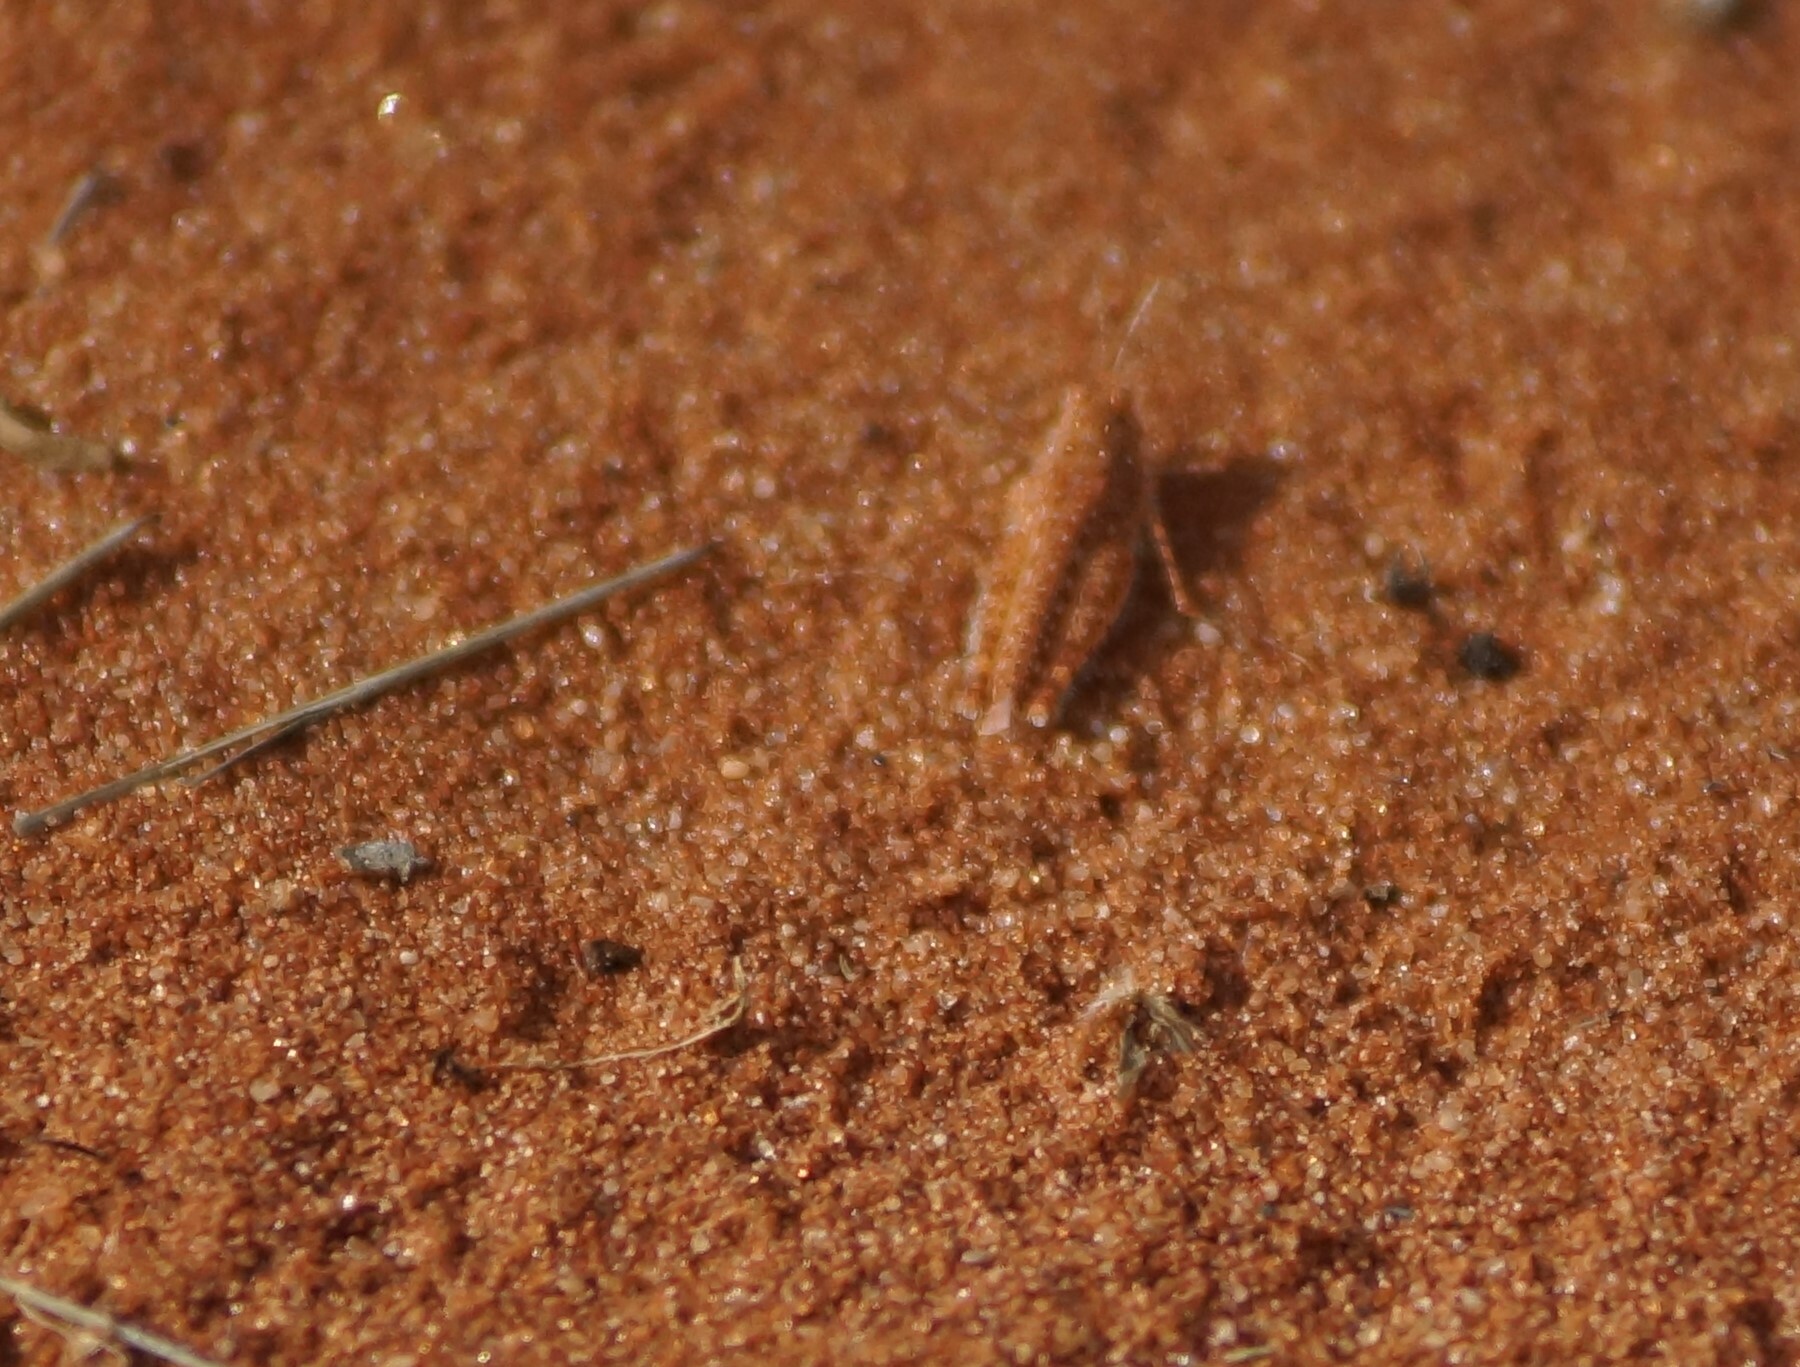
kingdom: Animalia
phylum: Arthropoda
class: Insecta
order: Orthoptera
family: Acrididae
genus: Urnisiella
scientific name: Urnisiella rubropunctata
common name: Long-legged sandhopper
